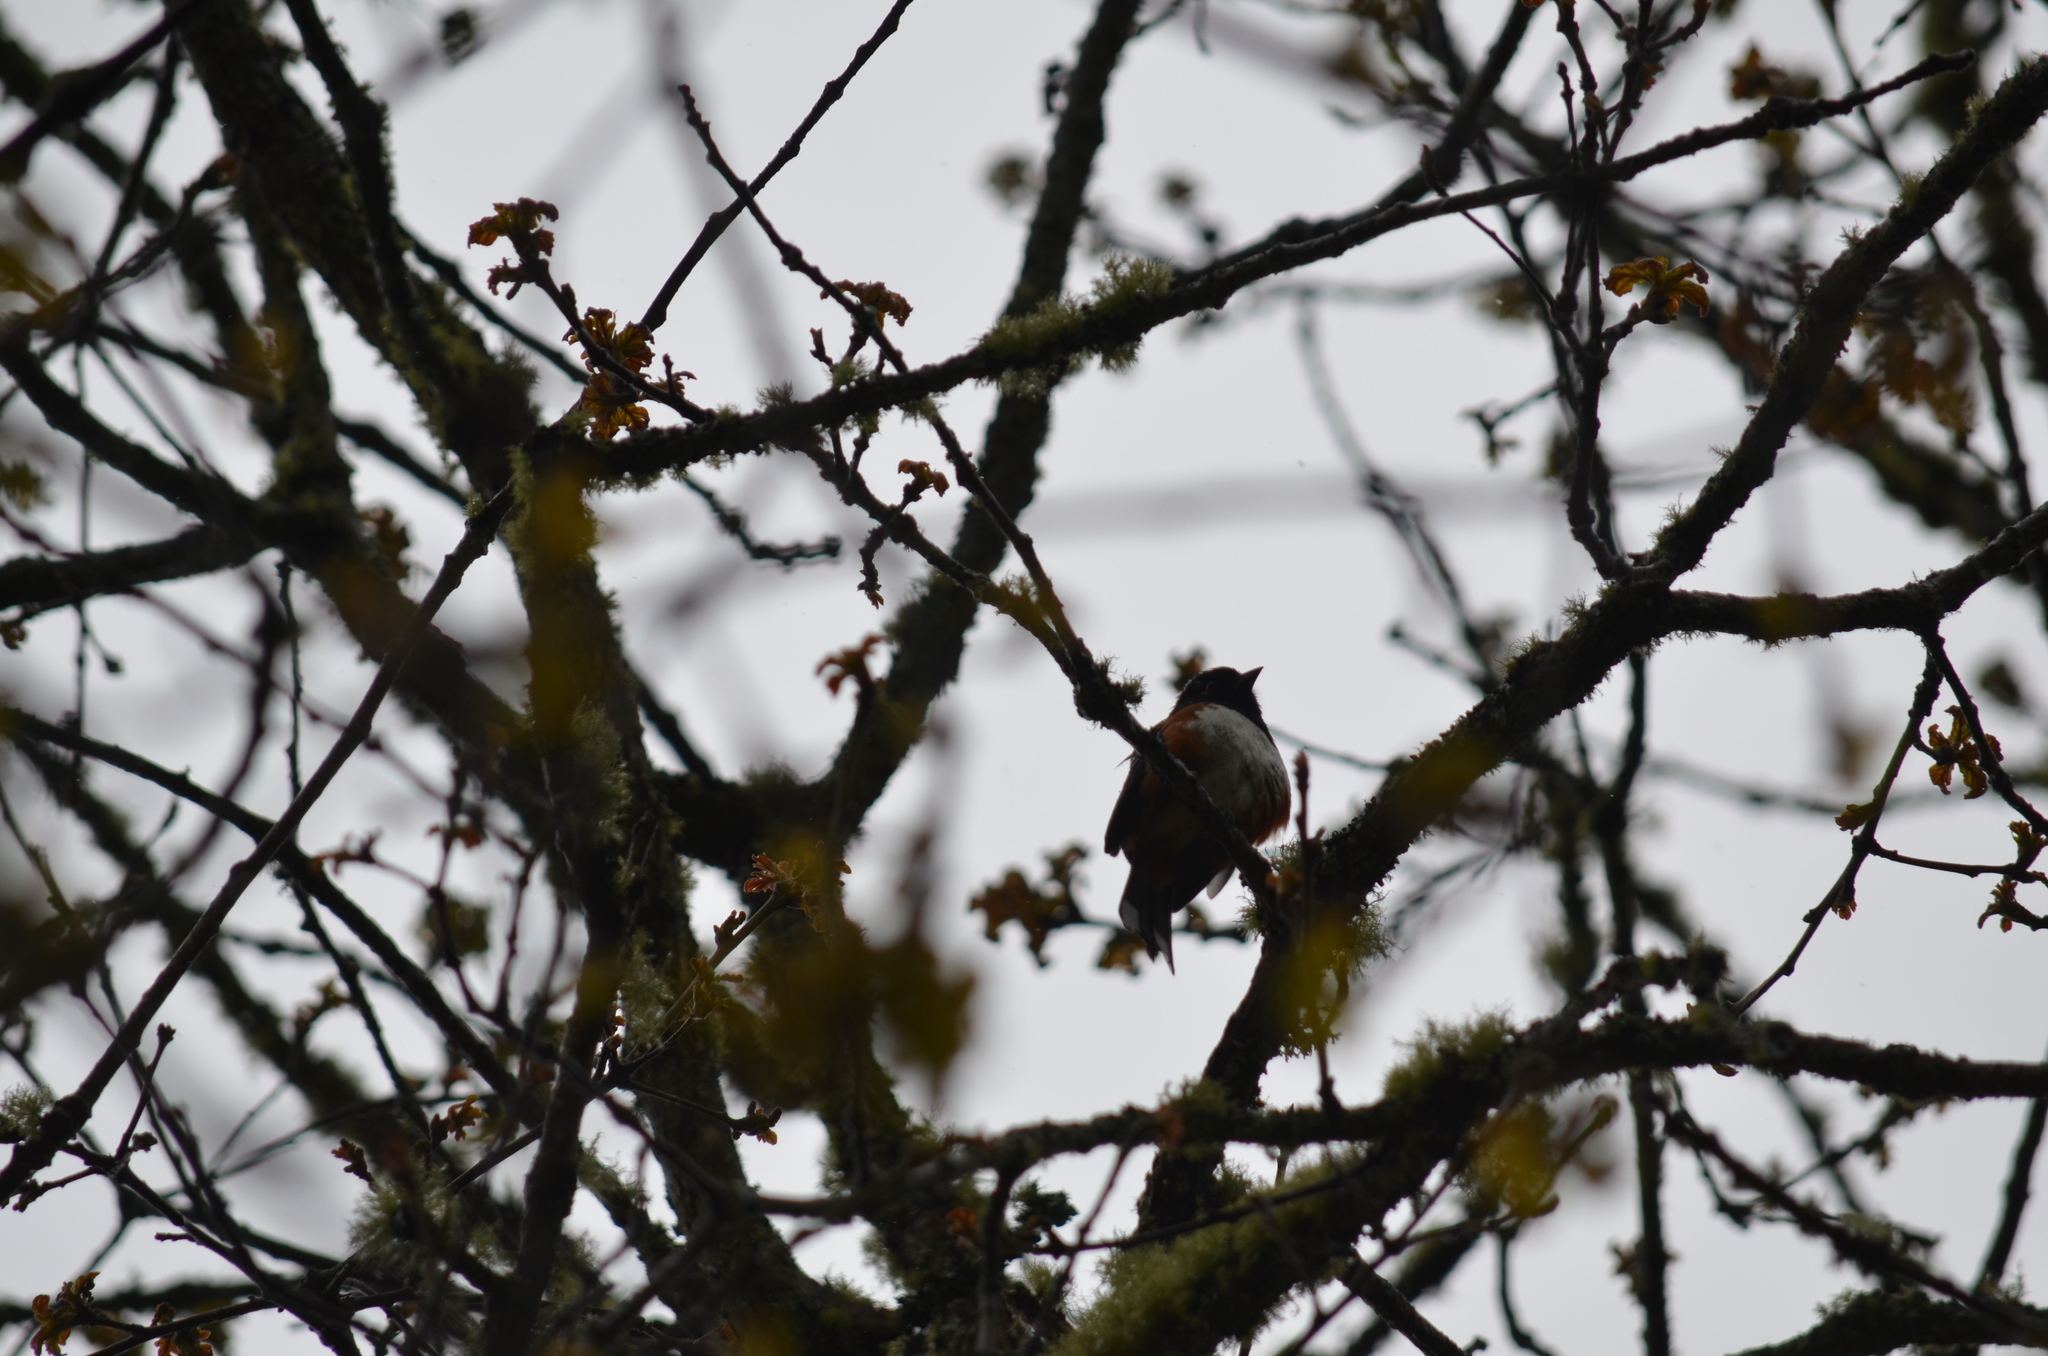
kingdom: Animalia
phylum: Chordata
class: Aves
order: Passeriformes
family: Passerellidae
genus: Pipilo
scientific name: Pipilo maculatus
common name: Spotted towhee
